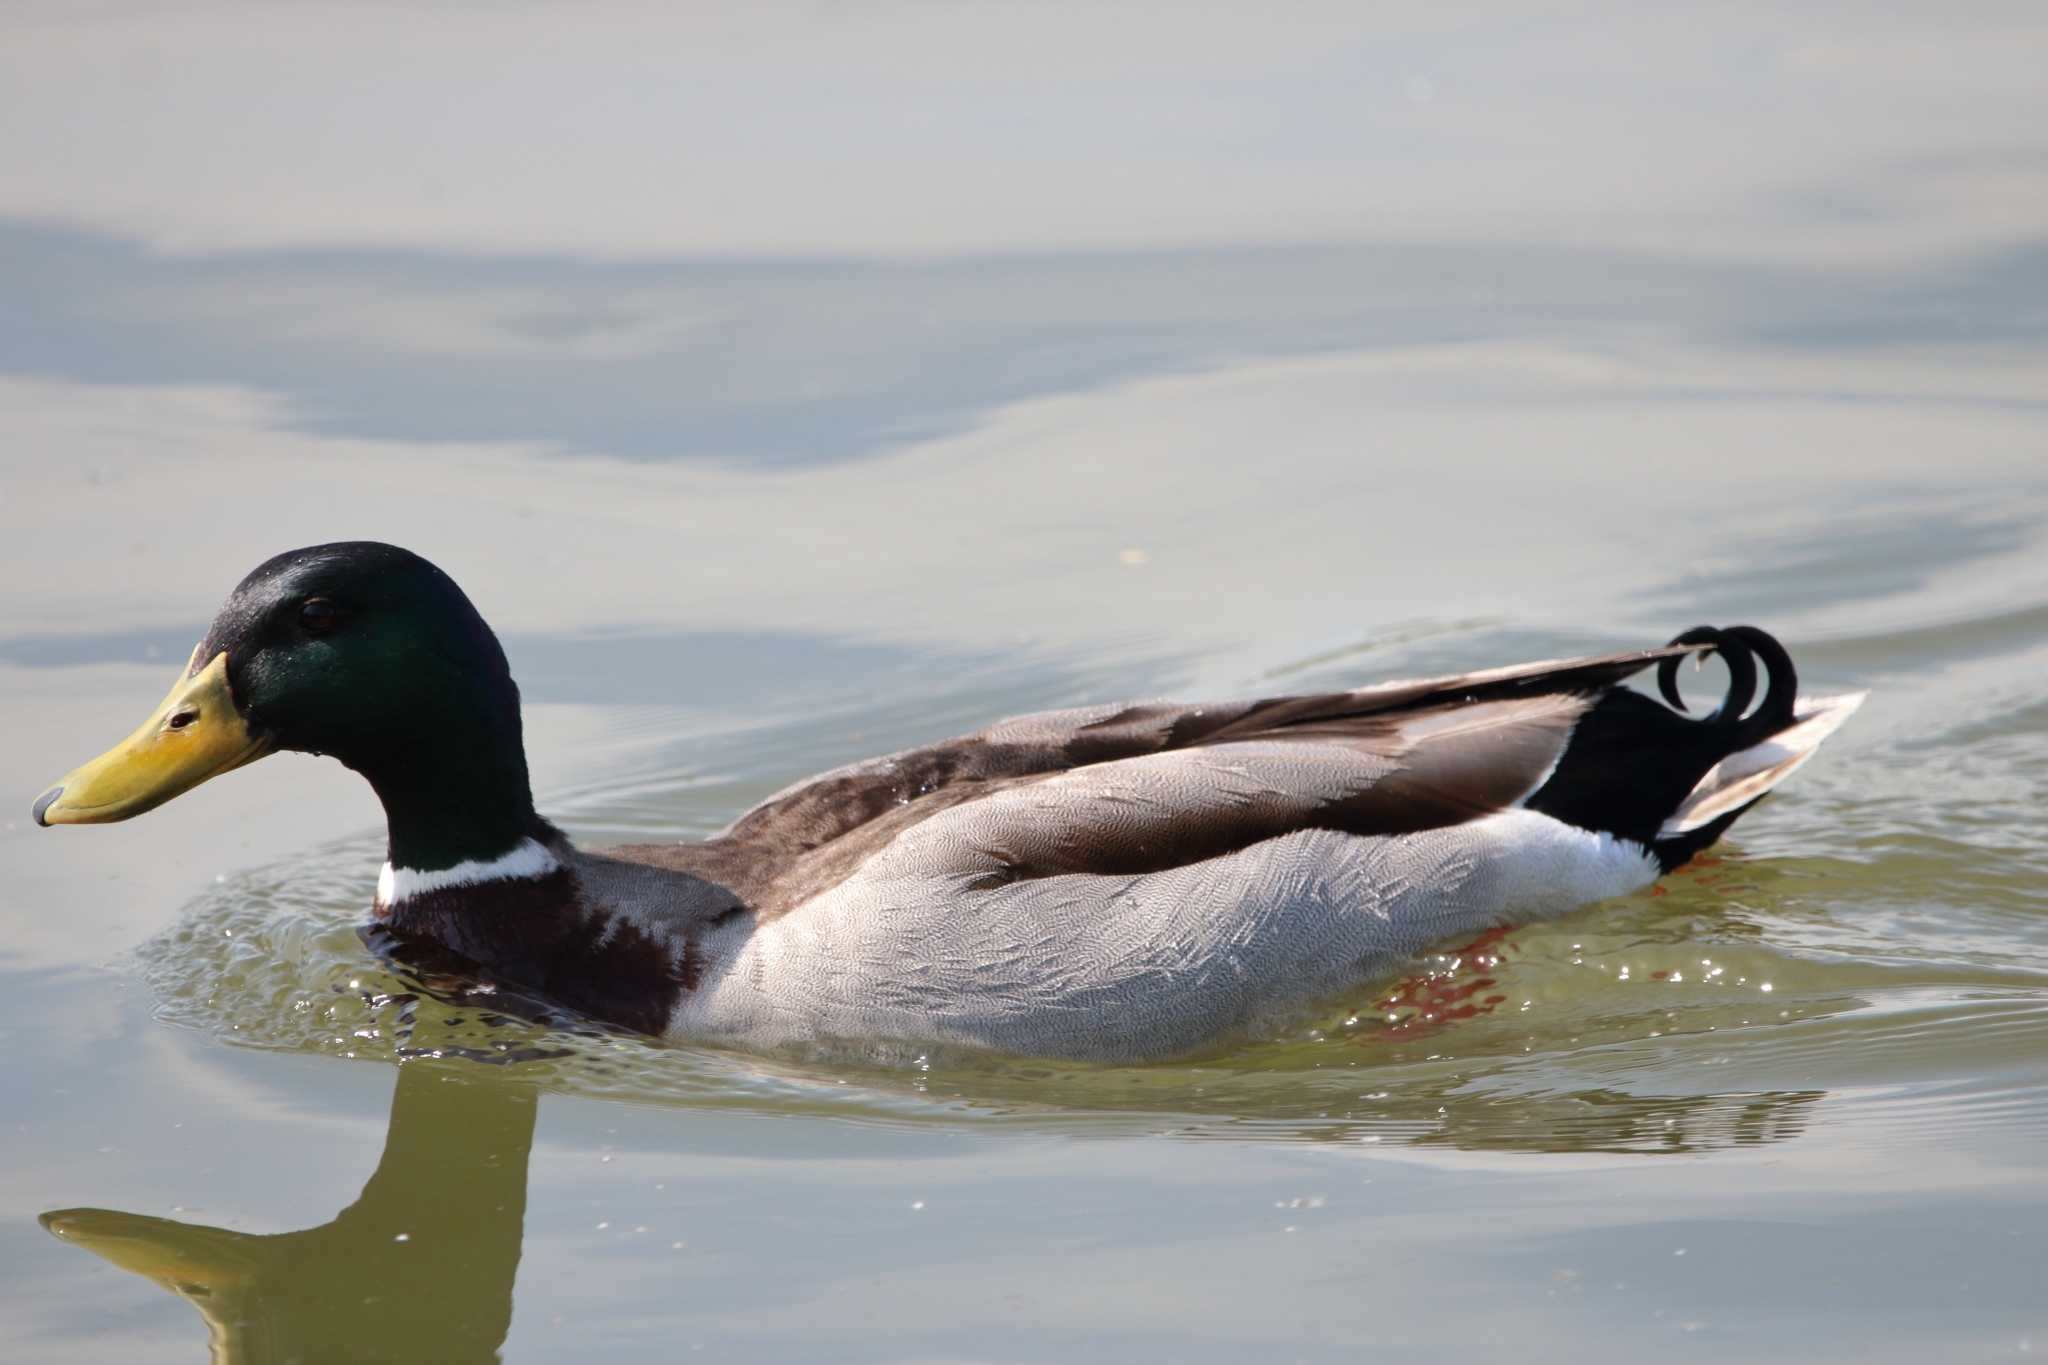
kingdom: Animalia
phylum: Chordata
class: Aves
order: Anseriformes
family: Anatidae
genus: Anas
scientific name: Anas platyrhynchos
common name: Mallard
